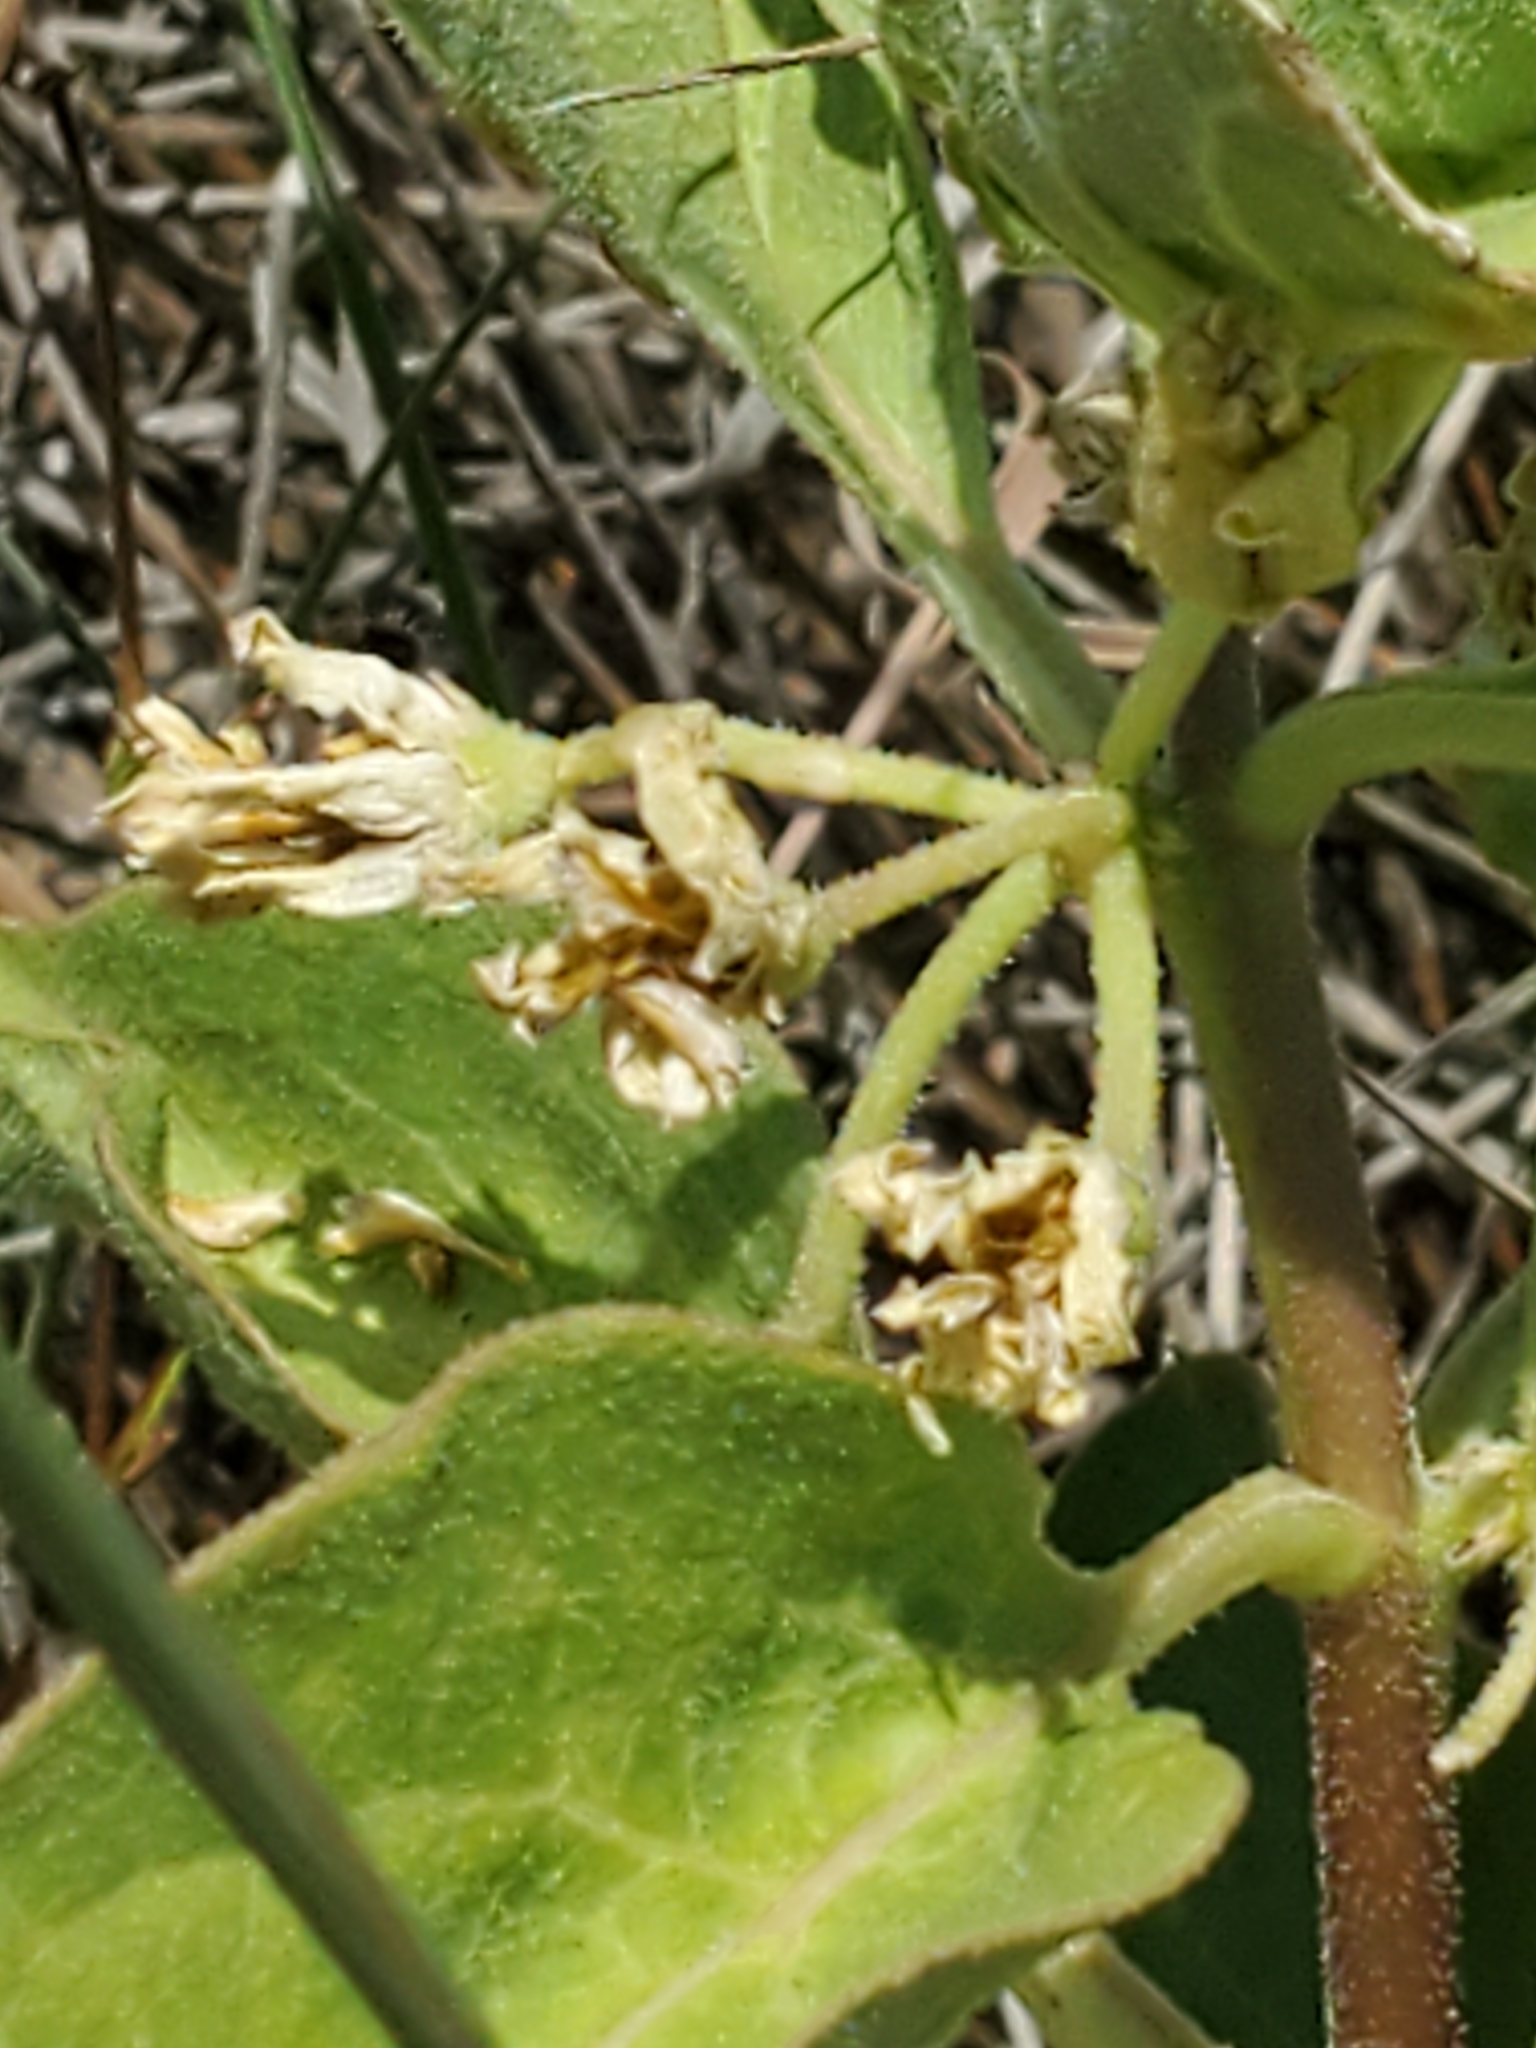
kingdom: Plantae
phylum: Tracheophyta
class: Magnoliopsida
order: Gentianales
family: Apocynaceae
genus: Asclepias
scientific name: Asclepias oenotheroides
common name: Zizotes milkweed
